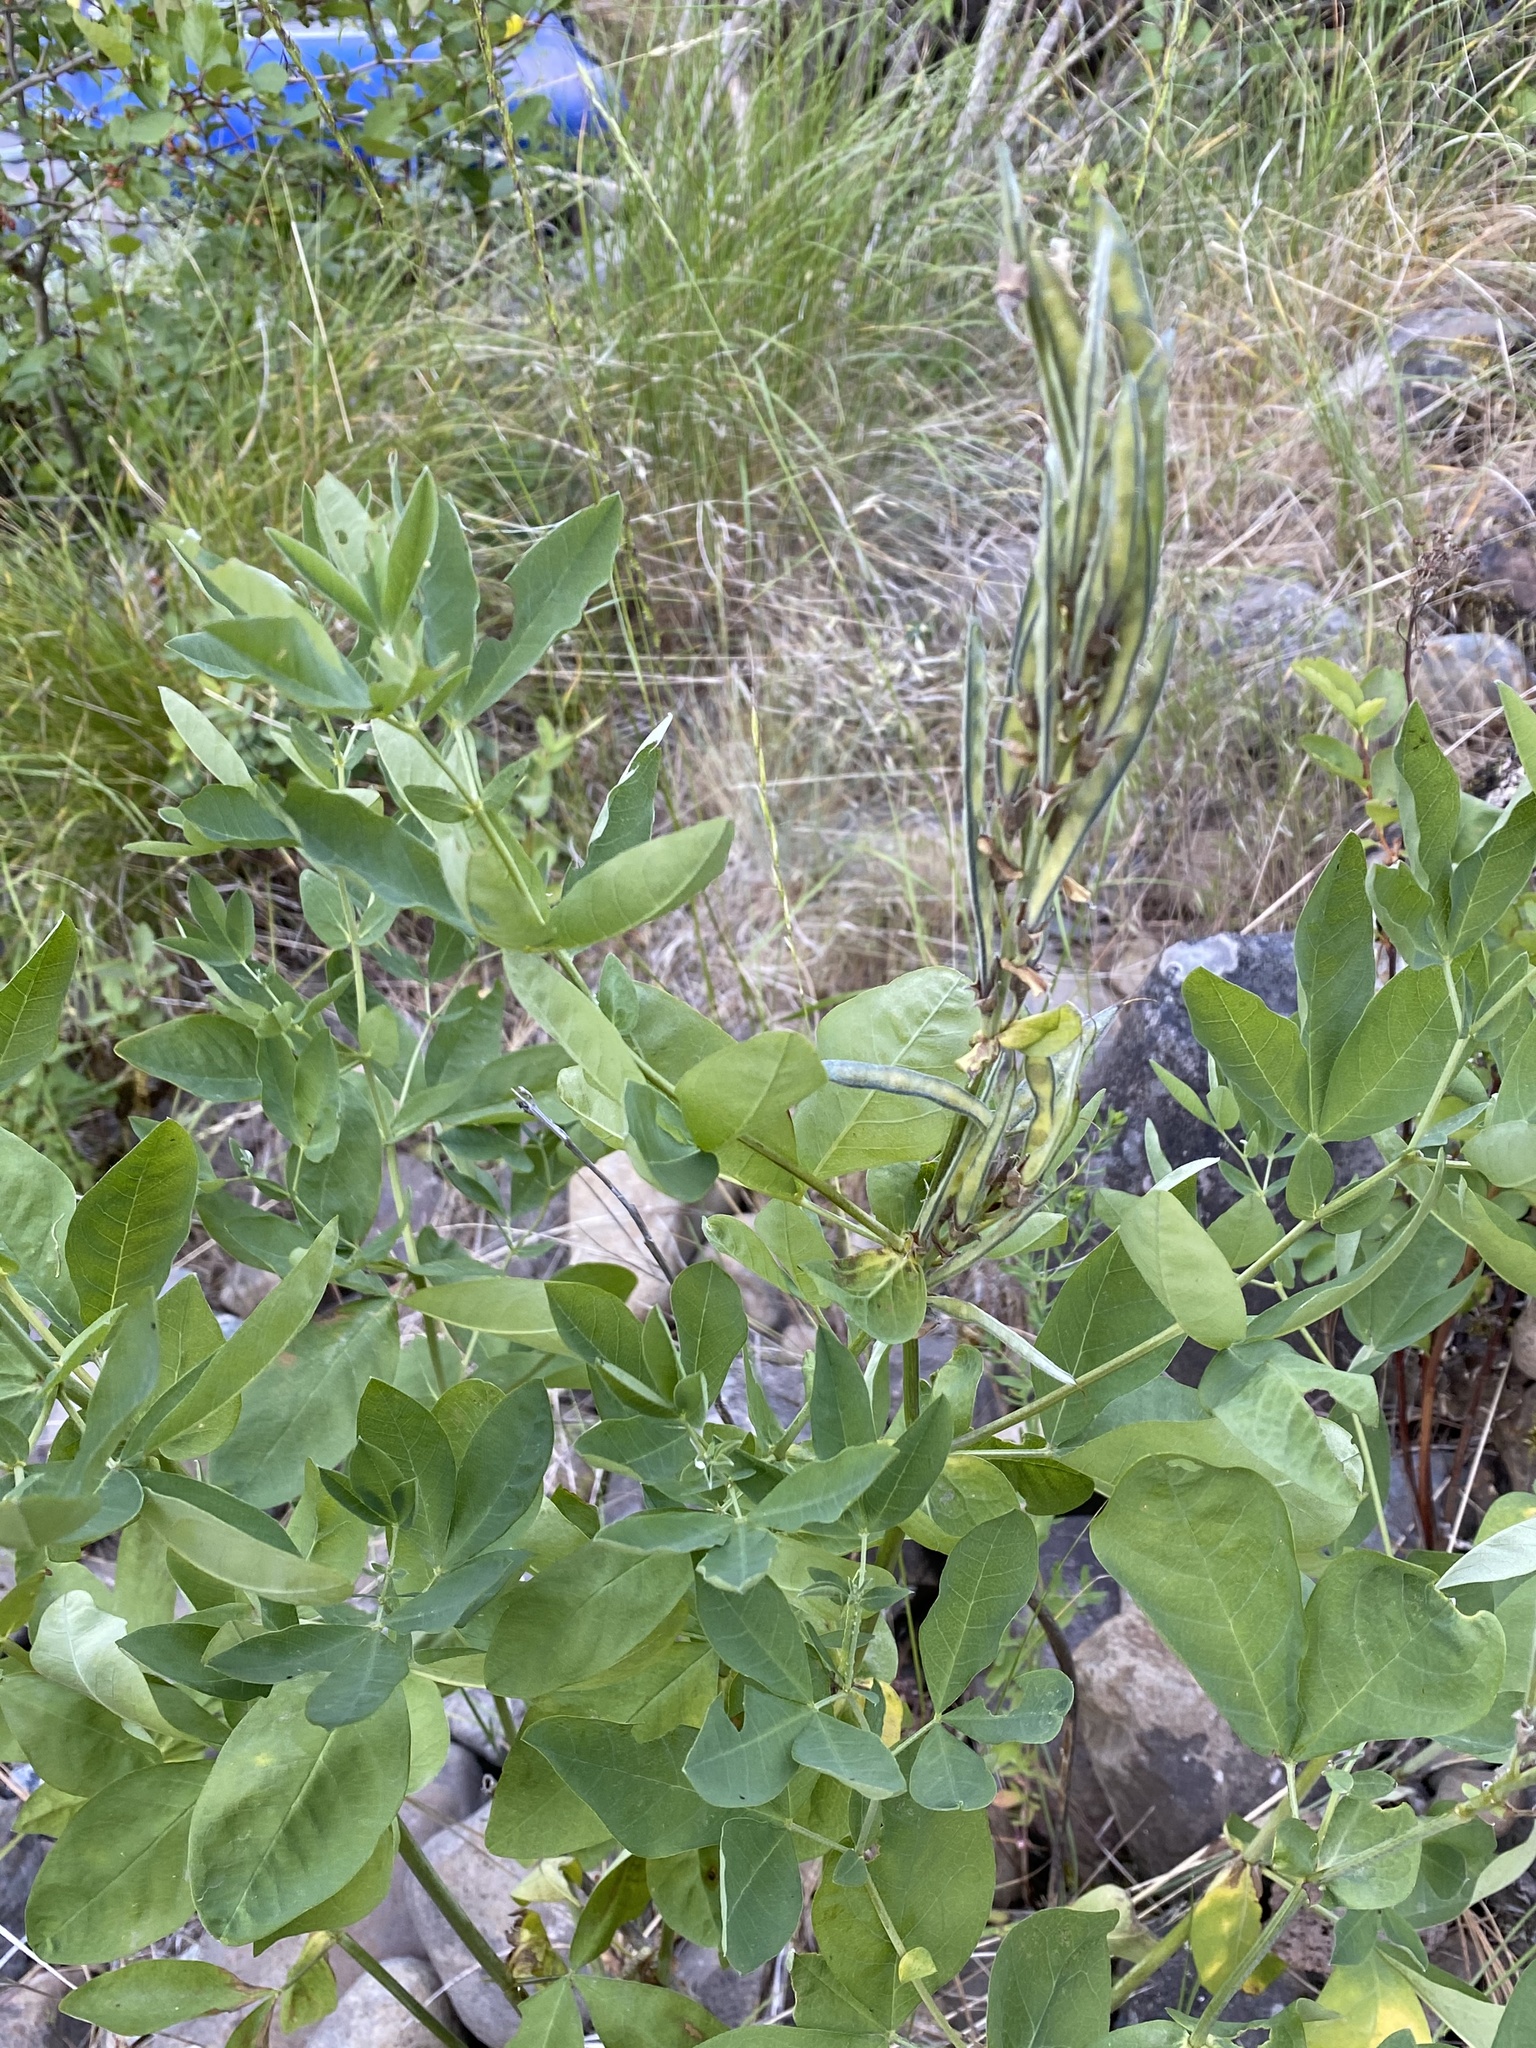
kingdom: Plantae
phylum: Tracheophyta
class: Magnoliopsida
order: Fabales
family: Fabaceae
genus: Thermopsis
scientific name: Thermopsis montana
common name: False lupin
